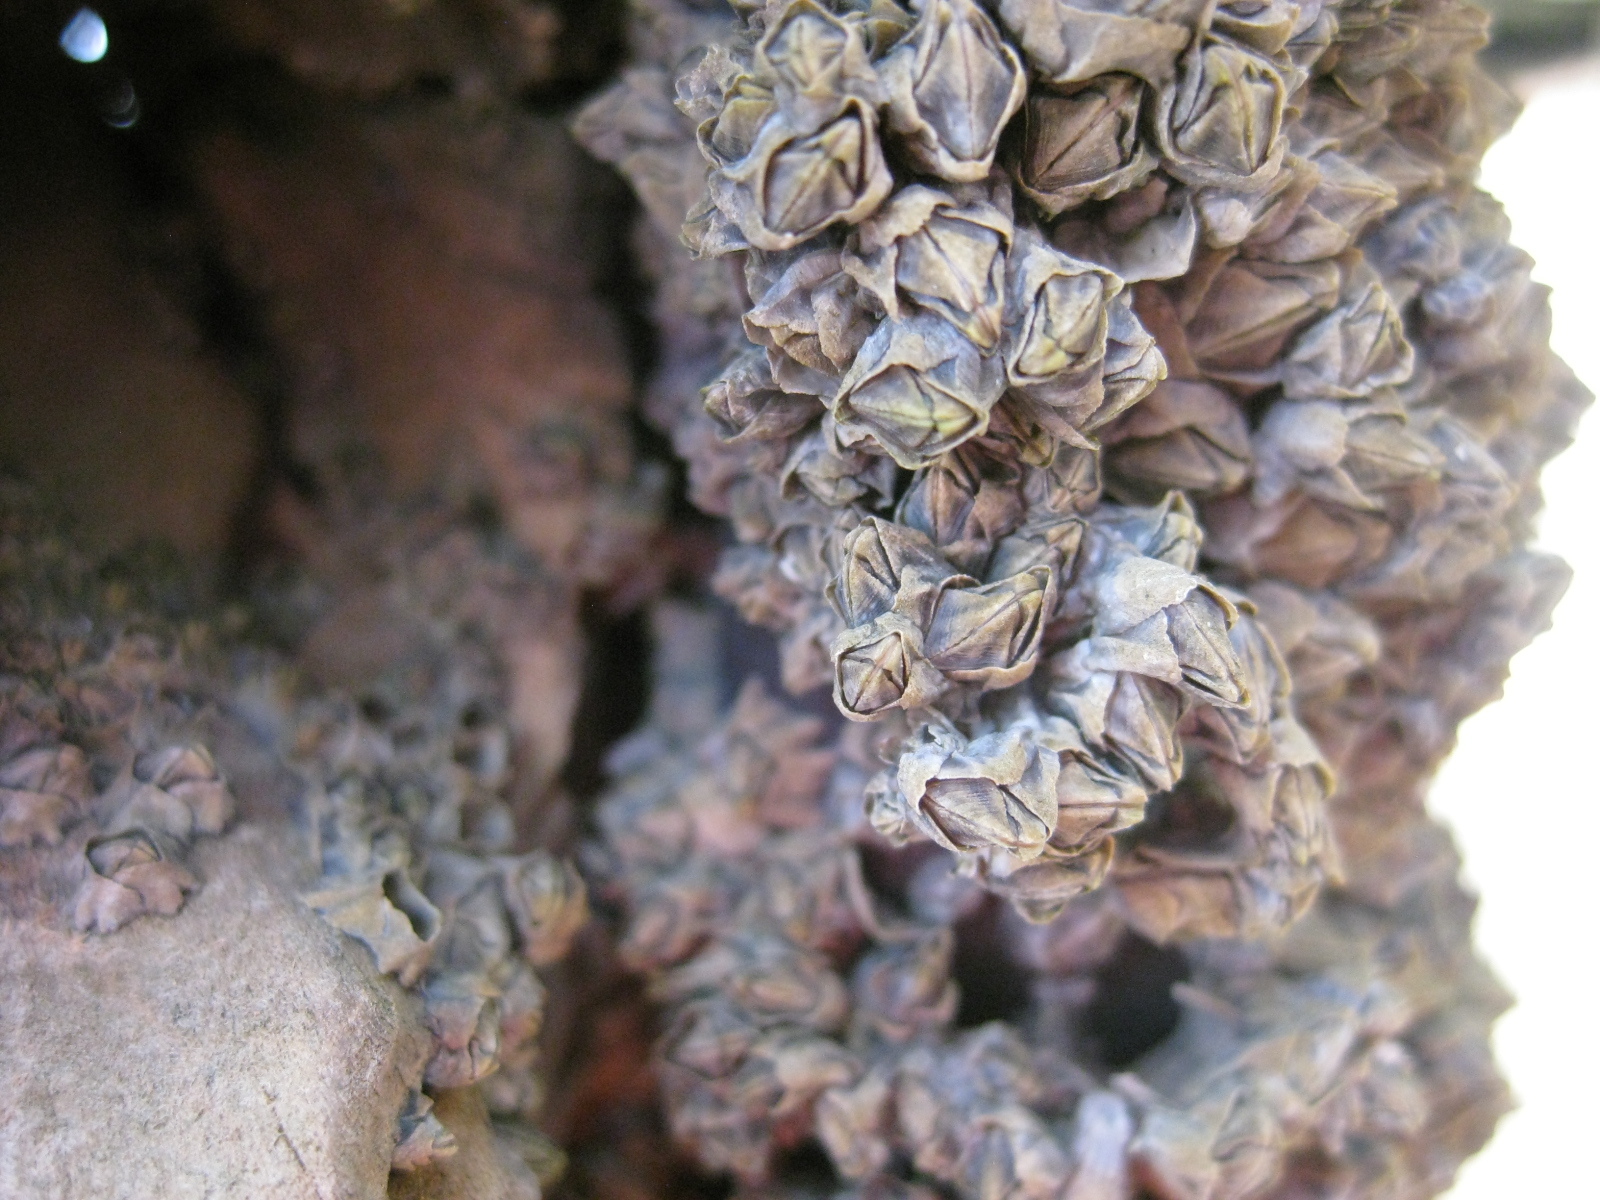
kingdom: Animalia
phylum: Arthropoda
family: Elminiidae
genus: Austrominius
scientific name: Austrominius modestus
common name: Australasian barnacle
